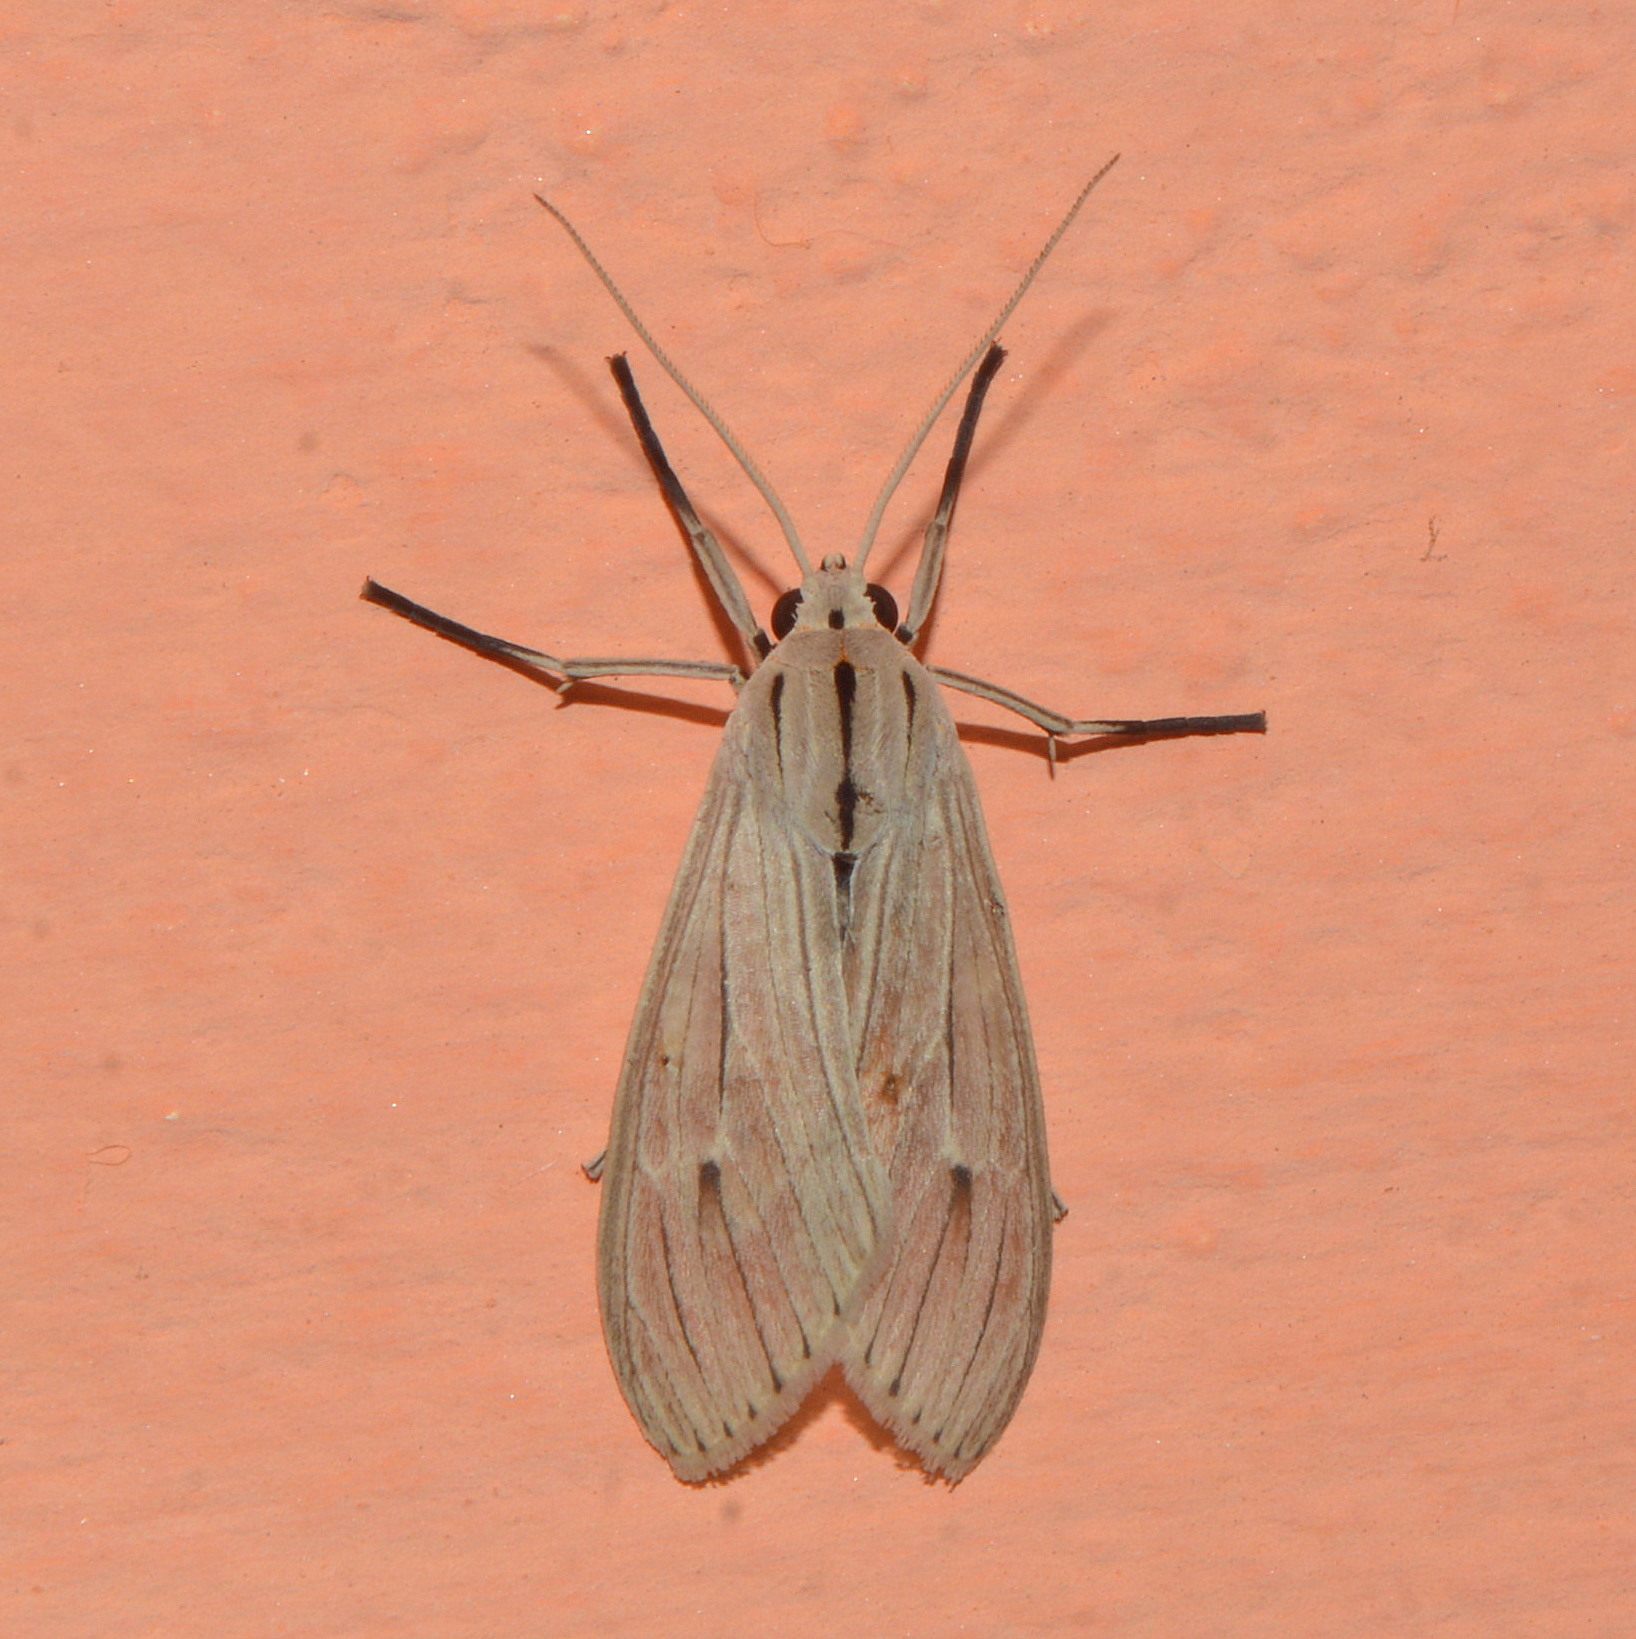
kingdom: Animalia
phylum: Arthropoda
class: Insecta
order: Lepidoptera
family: Erebidae
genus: Arctagyrta
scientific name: Arctagyrta Agaraea semivitrea
